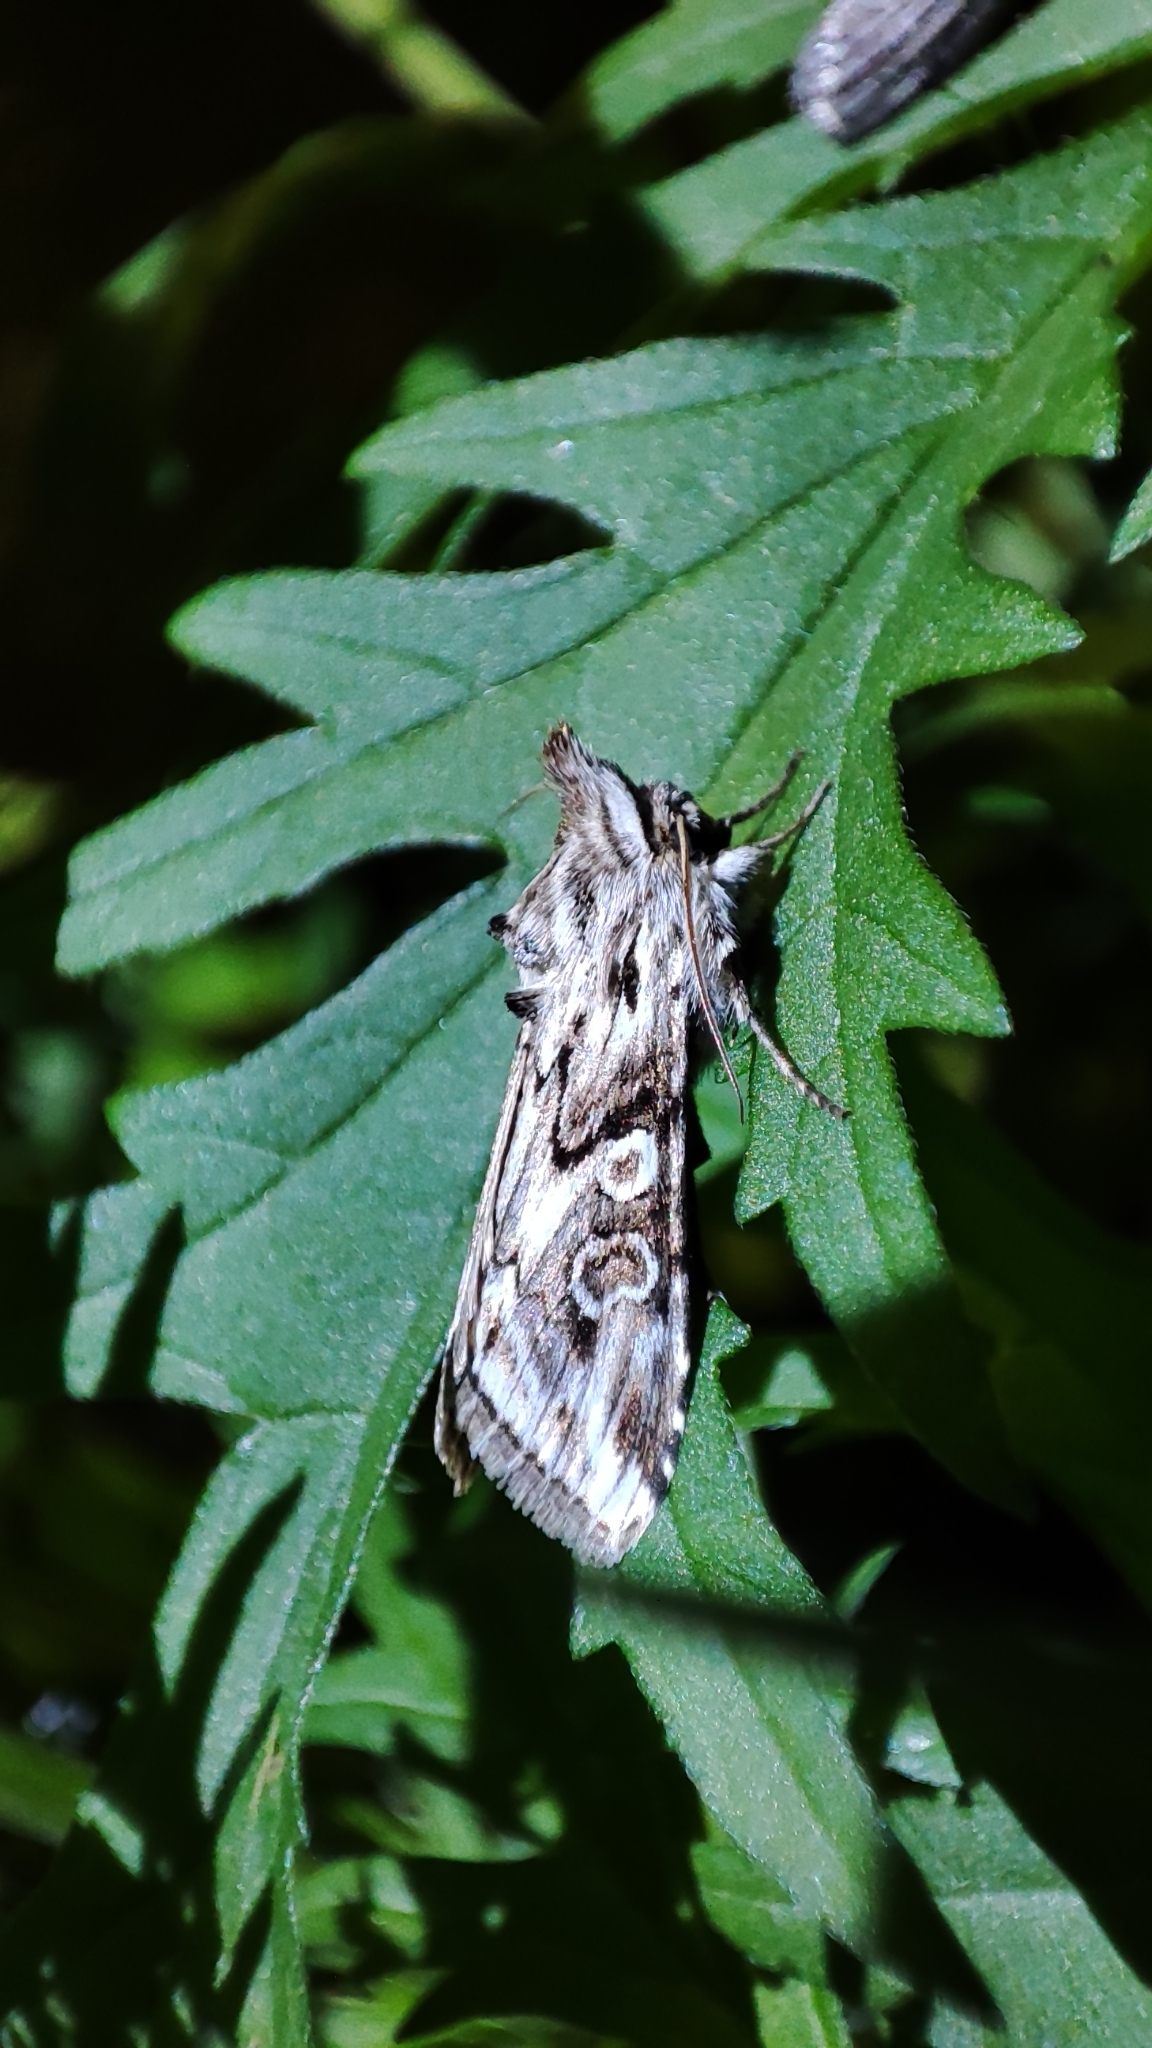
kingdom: Animalia
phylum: Arthropoda
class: Insecta
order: Lepidoptera
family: Noctuidae
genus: Cucullia
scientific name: Cucullia fuchsiana
